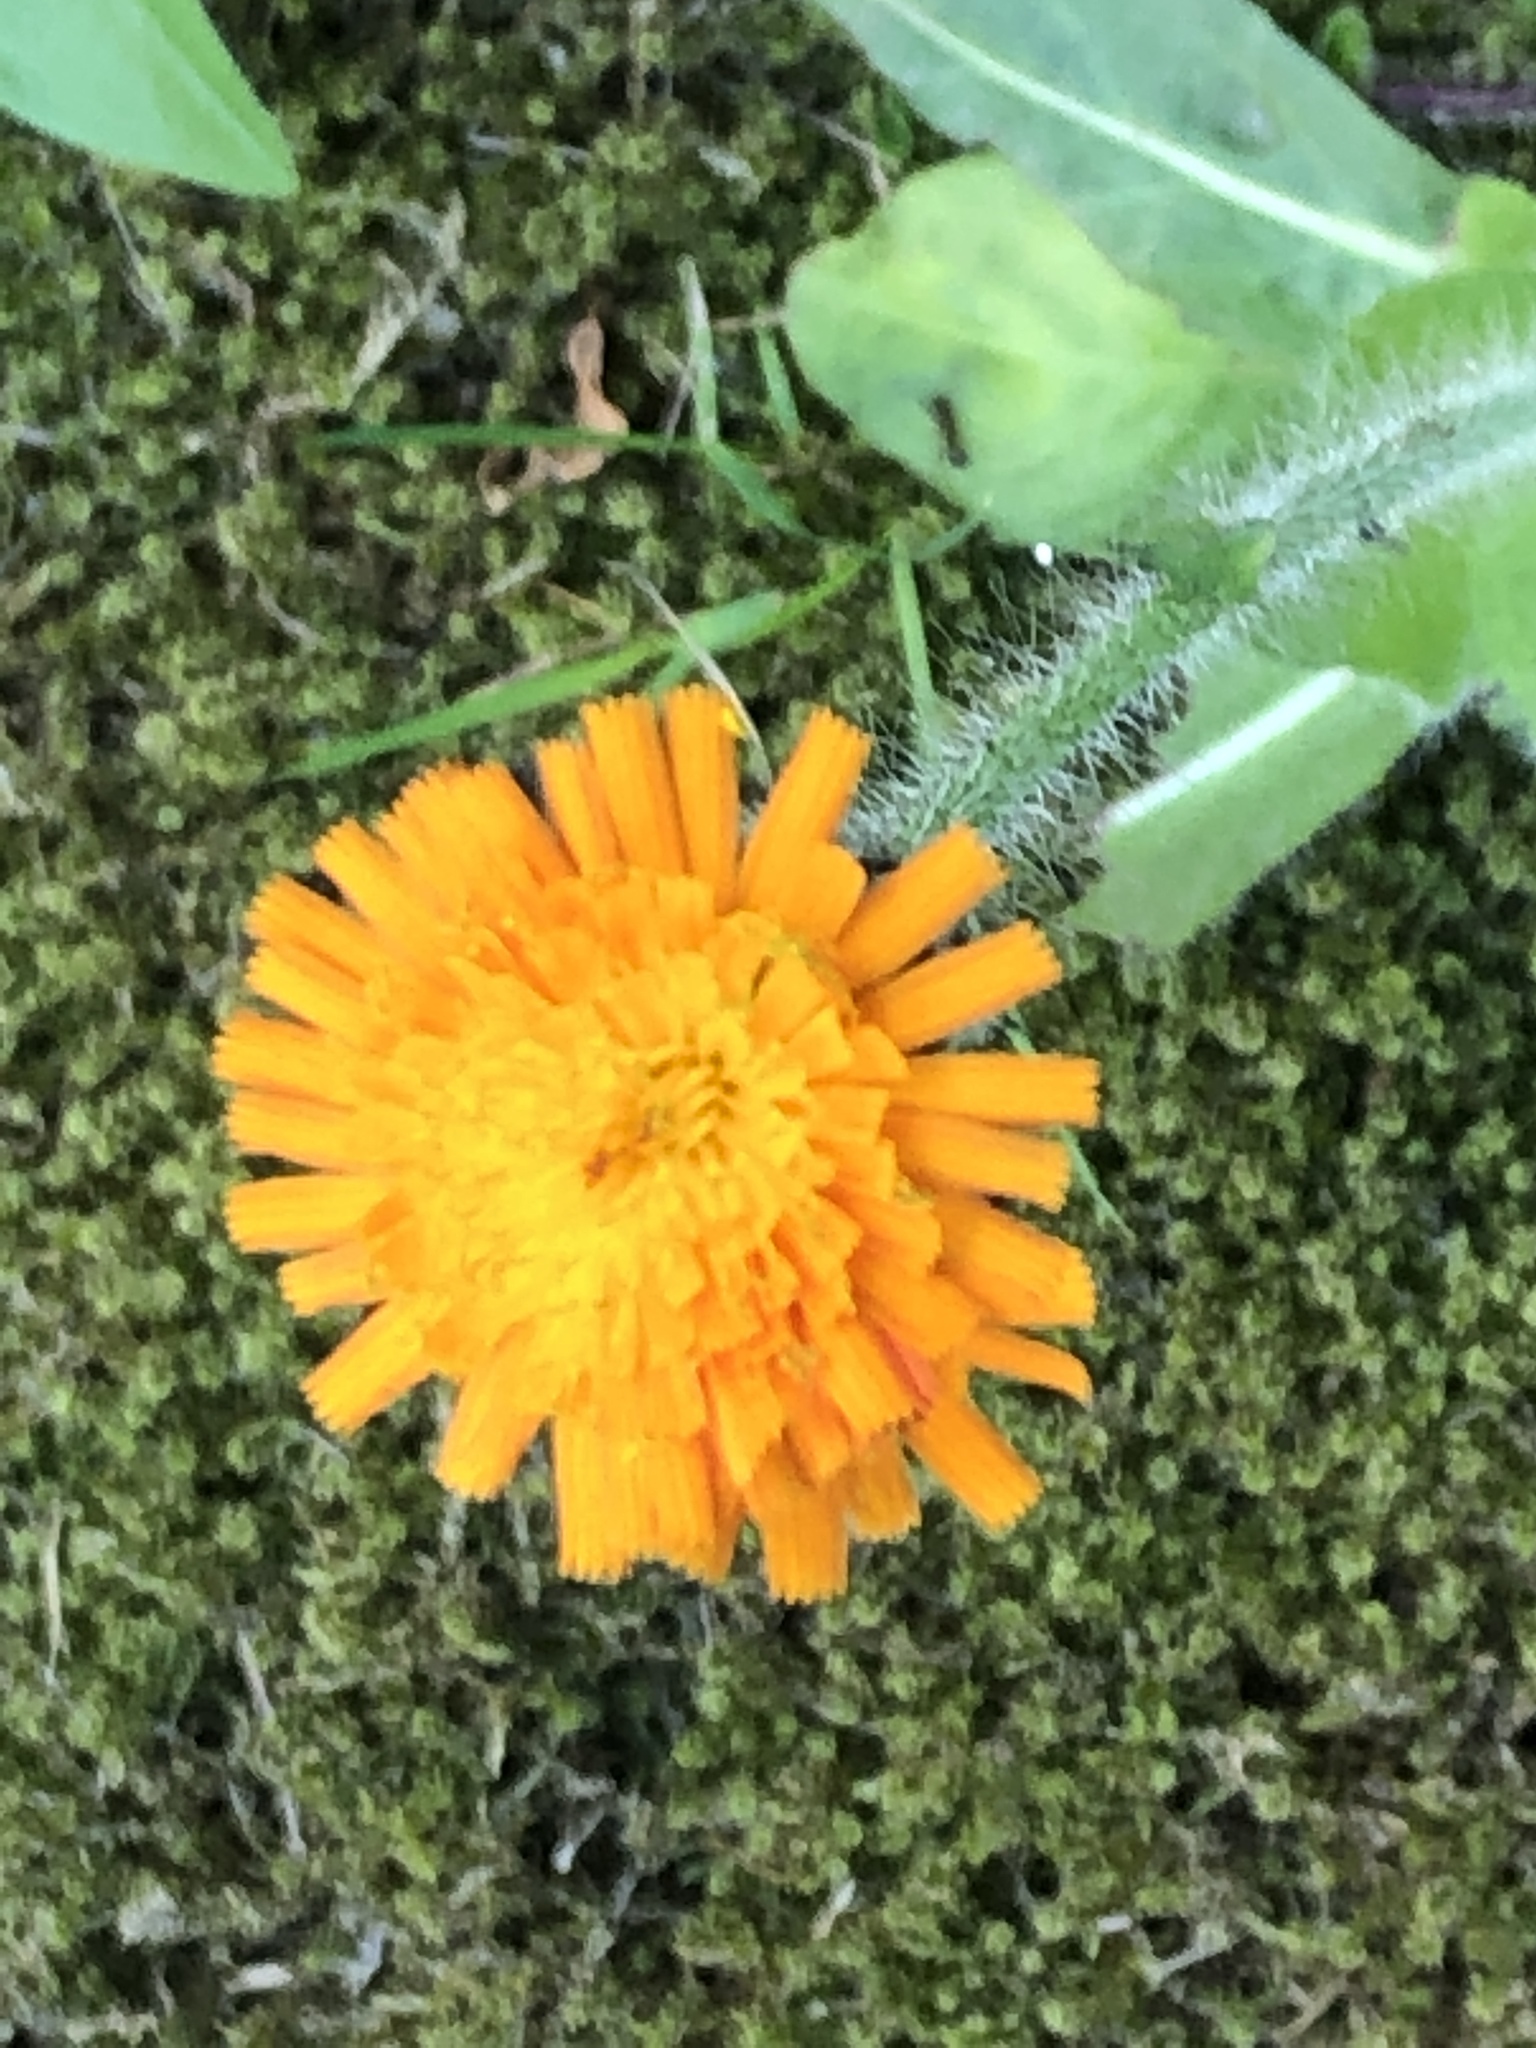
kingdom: Plantae
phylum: Tracheophyta
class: Magnoliopsida
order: Asterales
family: Asteraceae
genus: Pilosella
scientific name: Pilosella aurantiaca
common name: Fox-and-cubs
